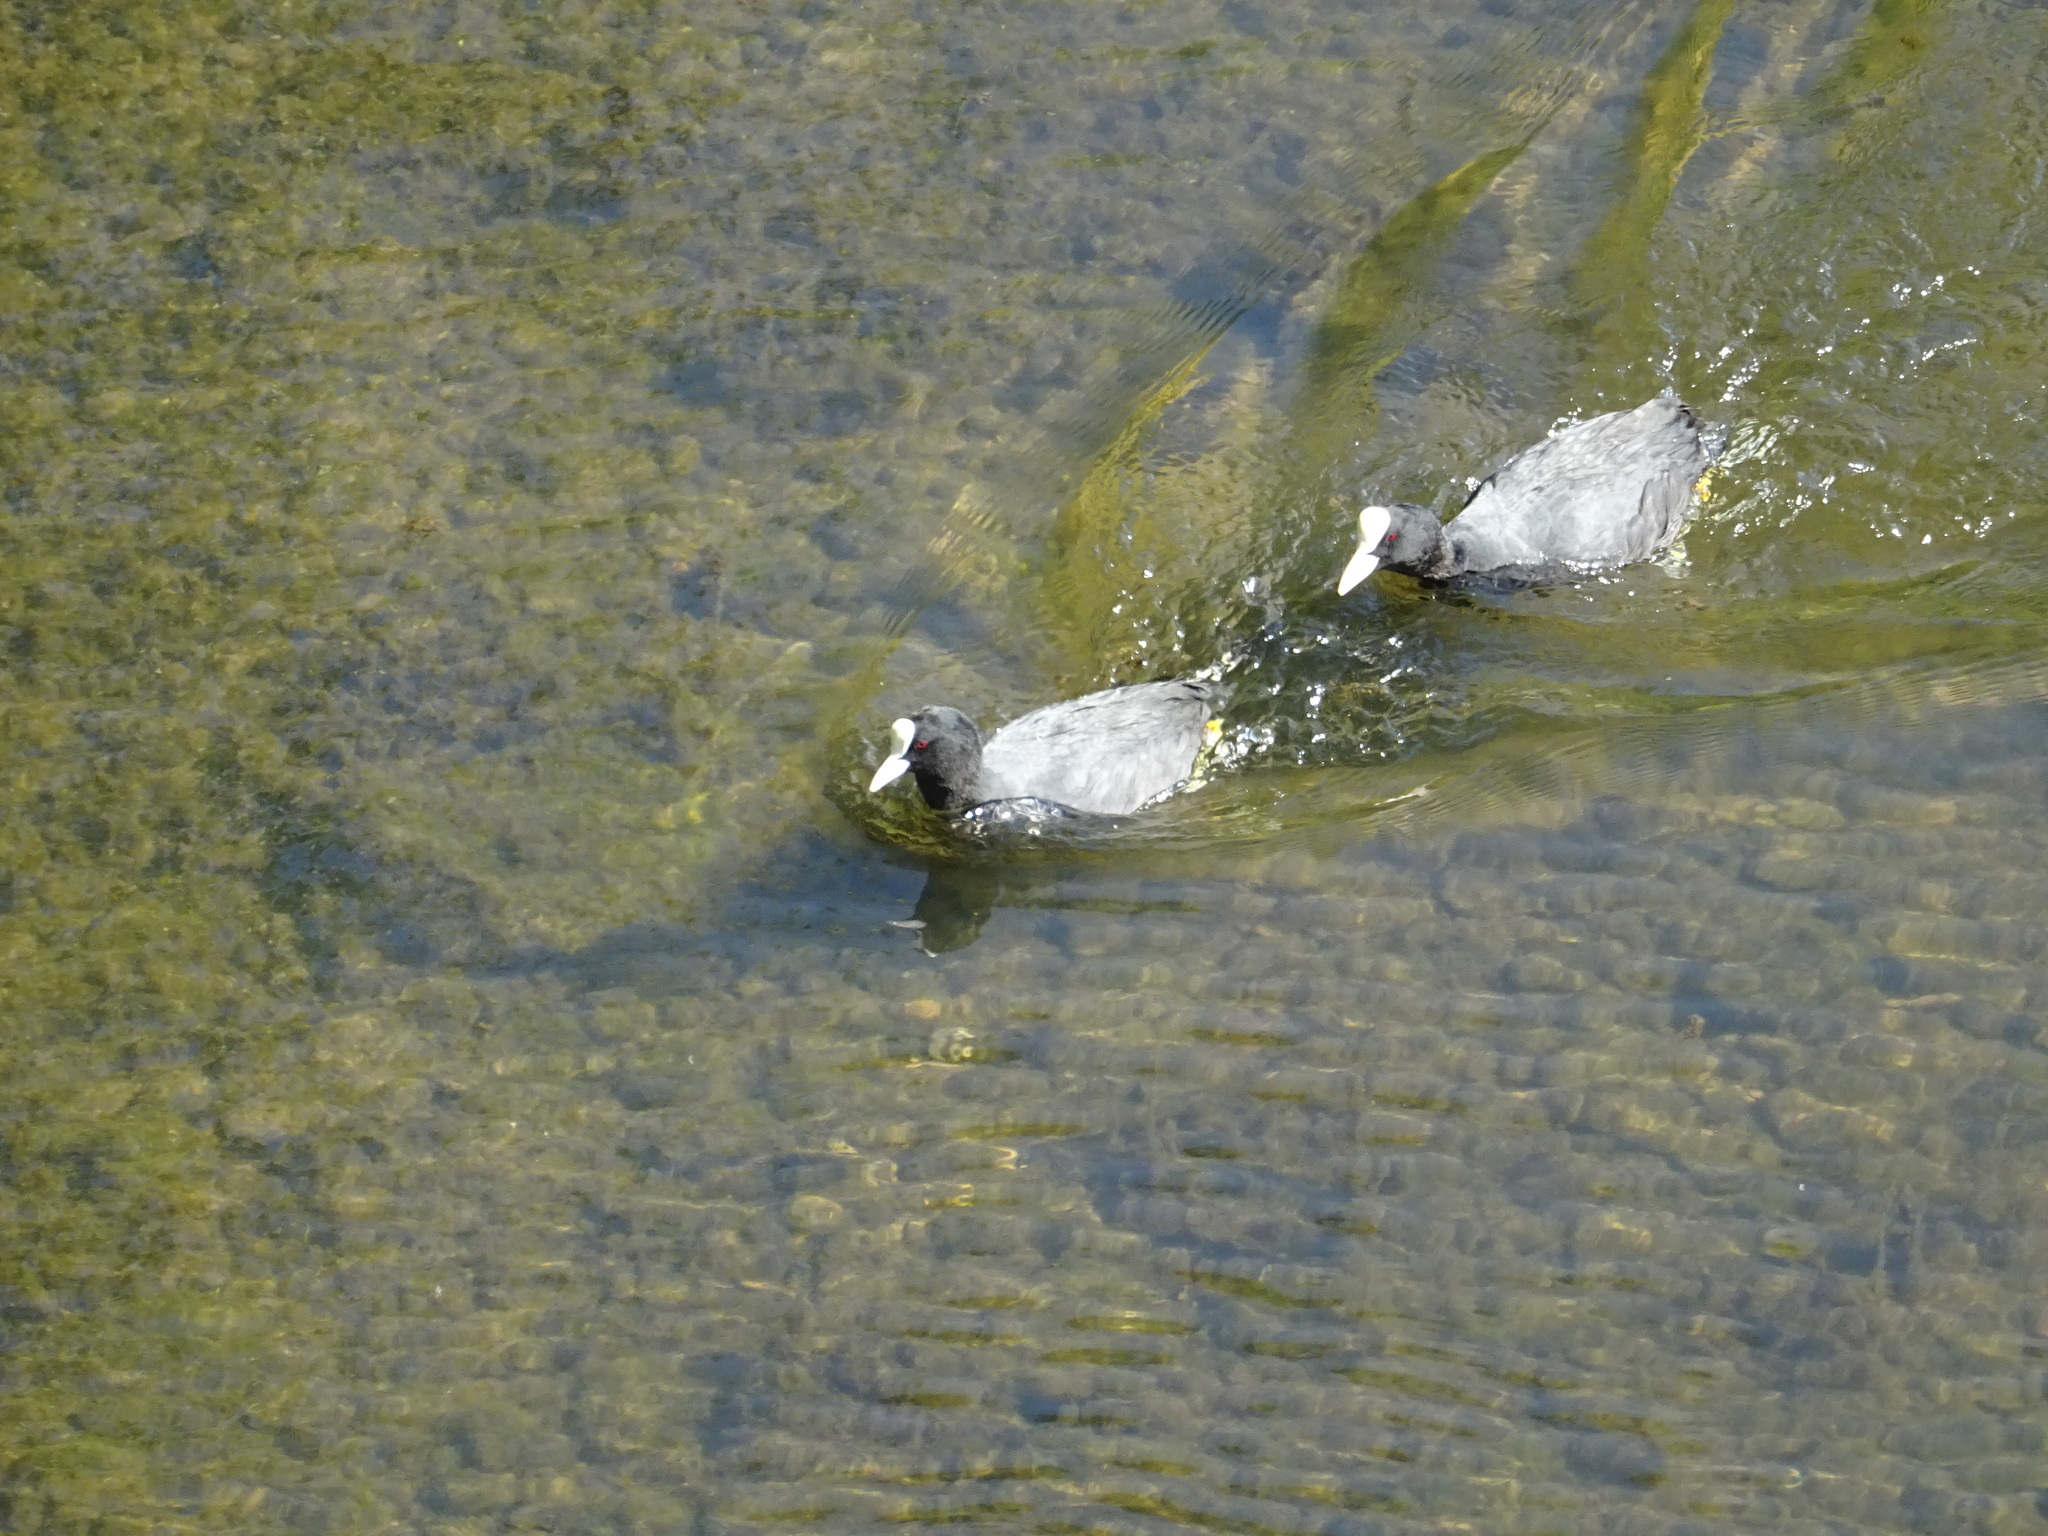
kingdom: Animalia
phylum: Chordata
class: Aves
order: Gruiformes
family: Rallidae
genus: Fulica
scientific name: Fulica atra
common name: Eurasian coot
